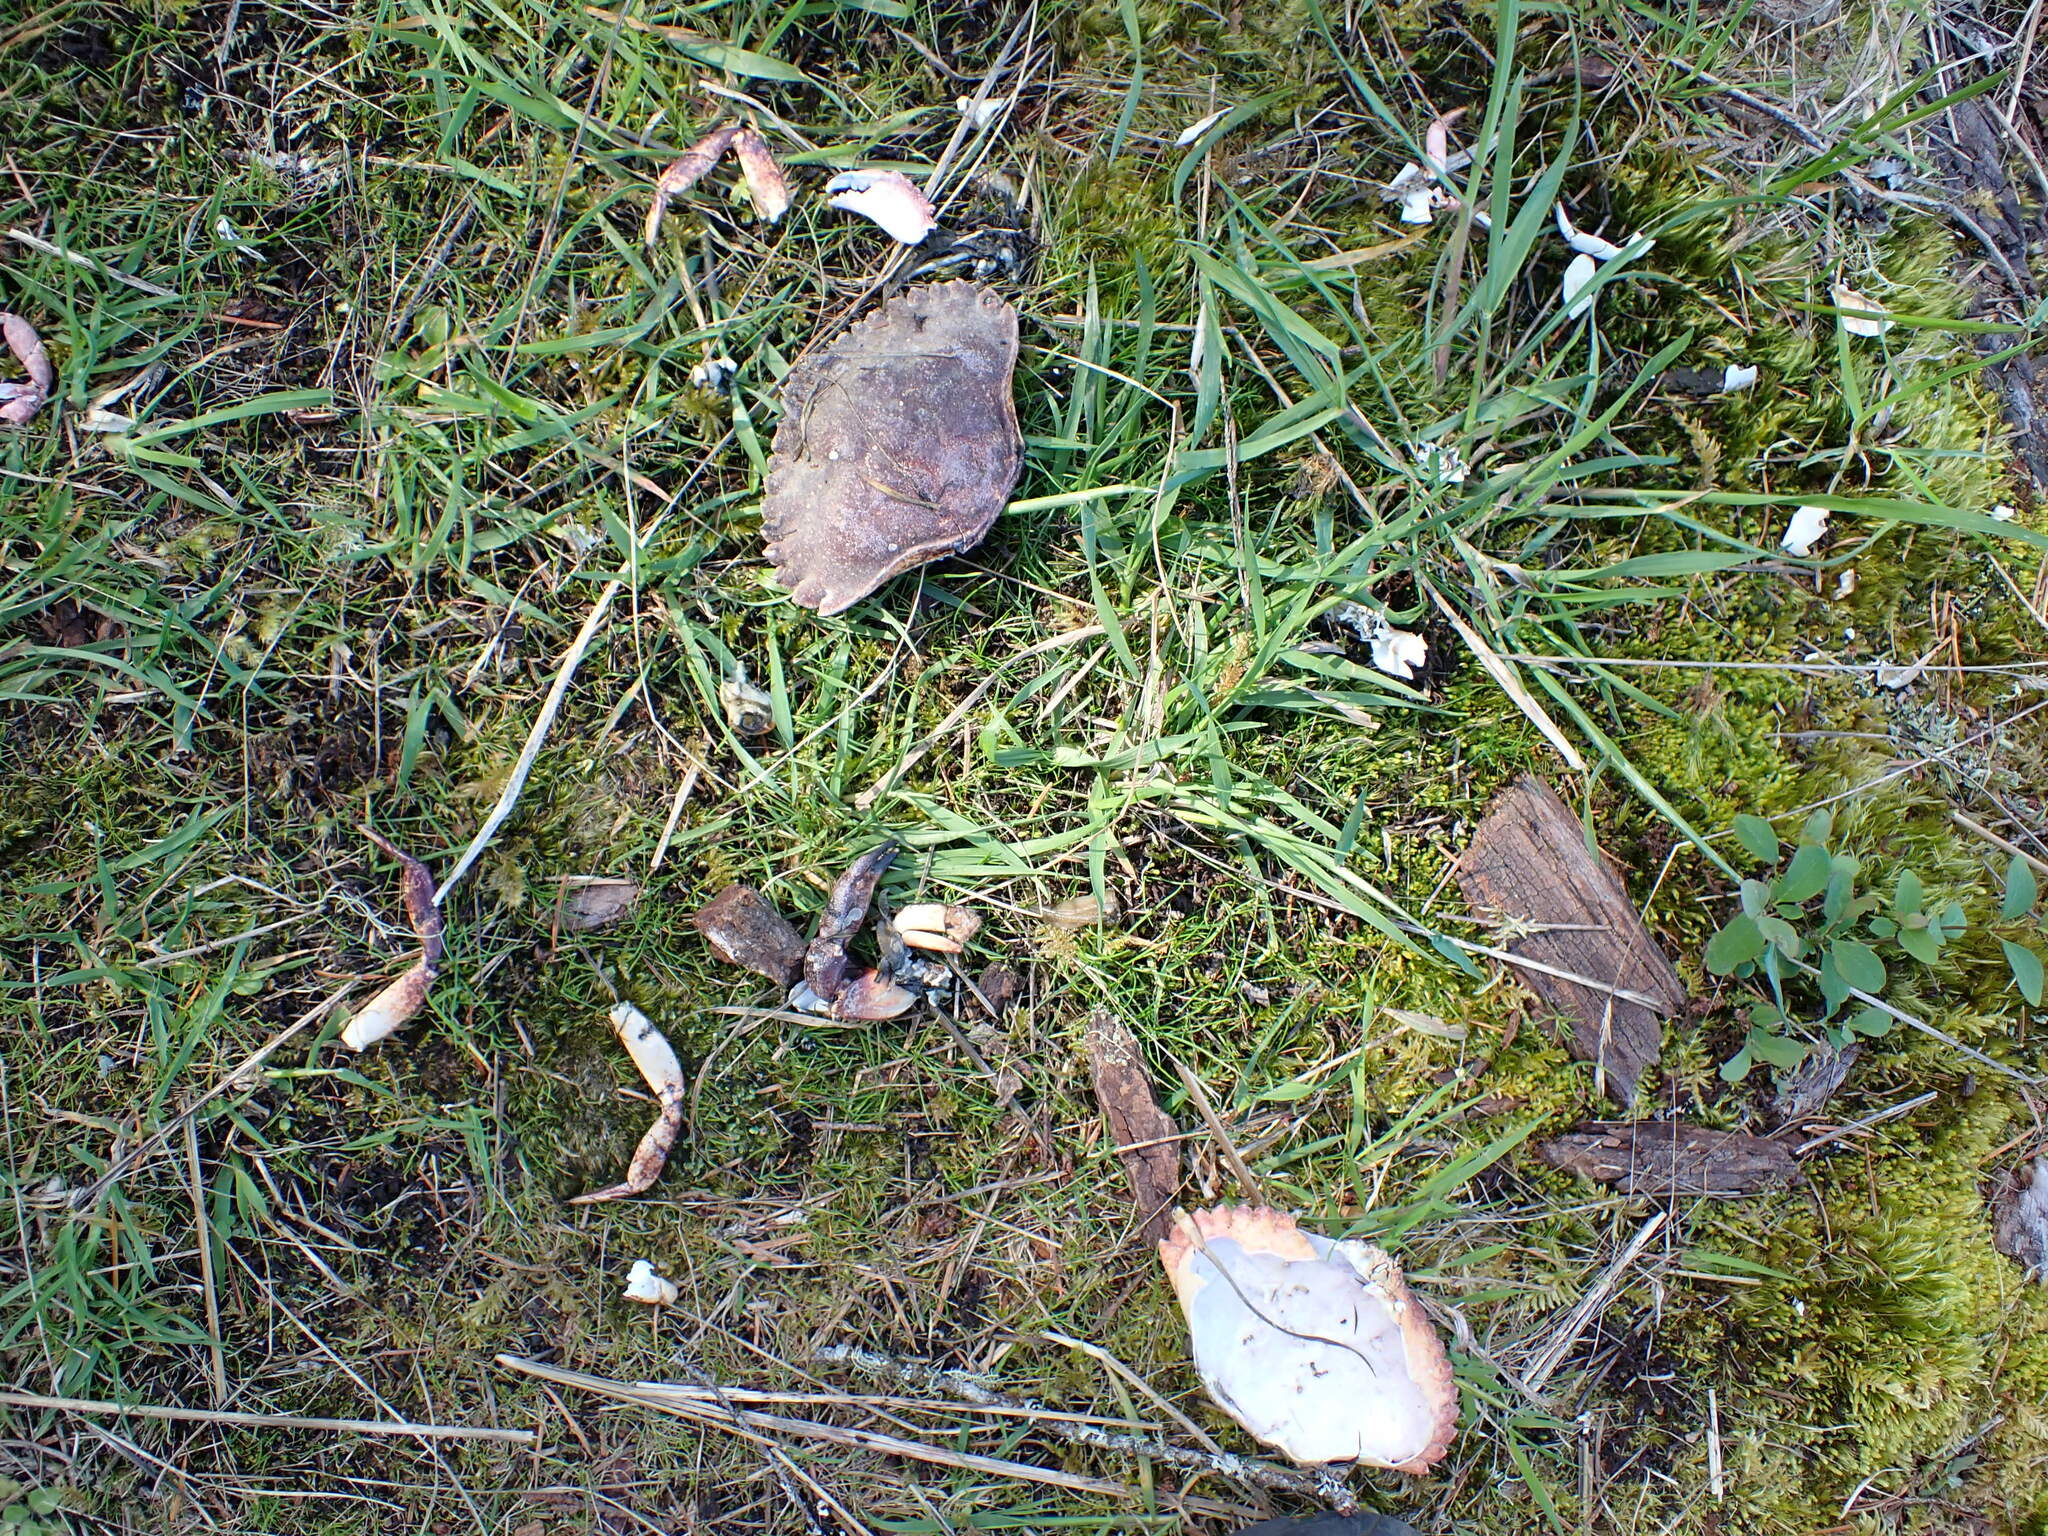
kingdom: Animalia
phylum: Arthropoda
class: Malacostraca
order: Decapoda
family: Cancridae
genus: Cancer
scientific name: Cancer productus
